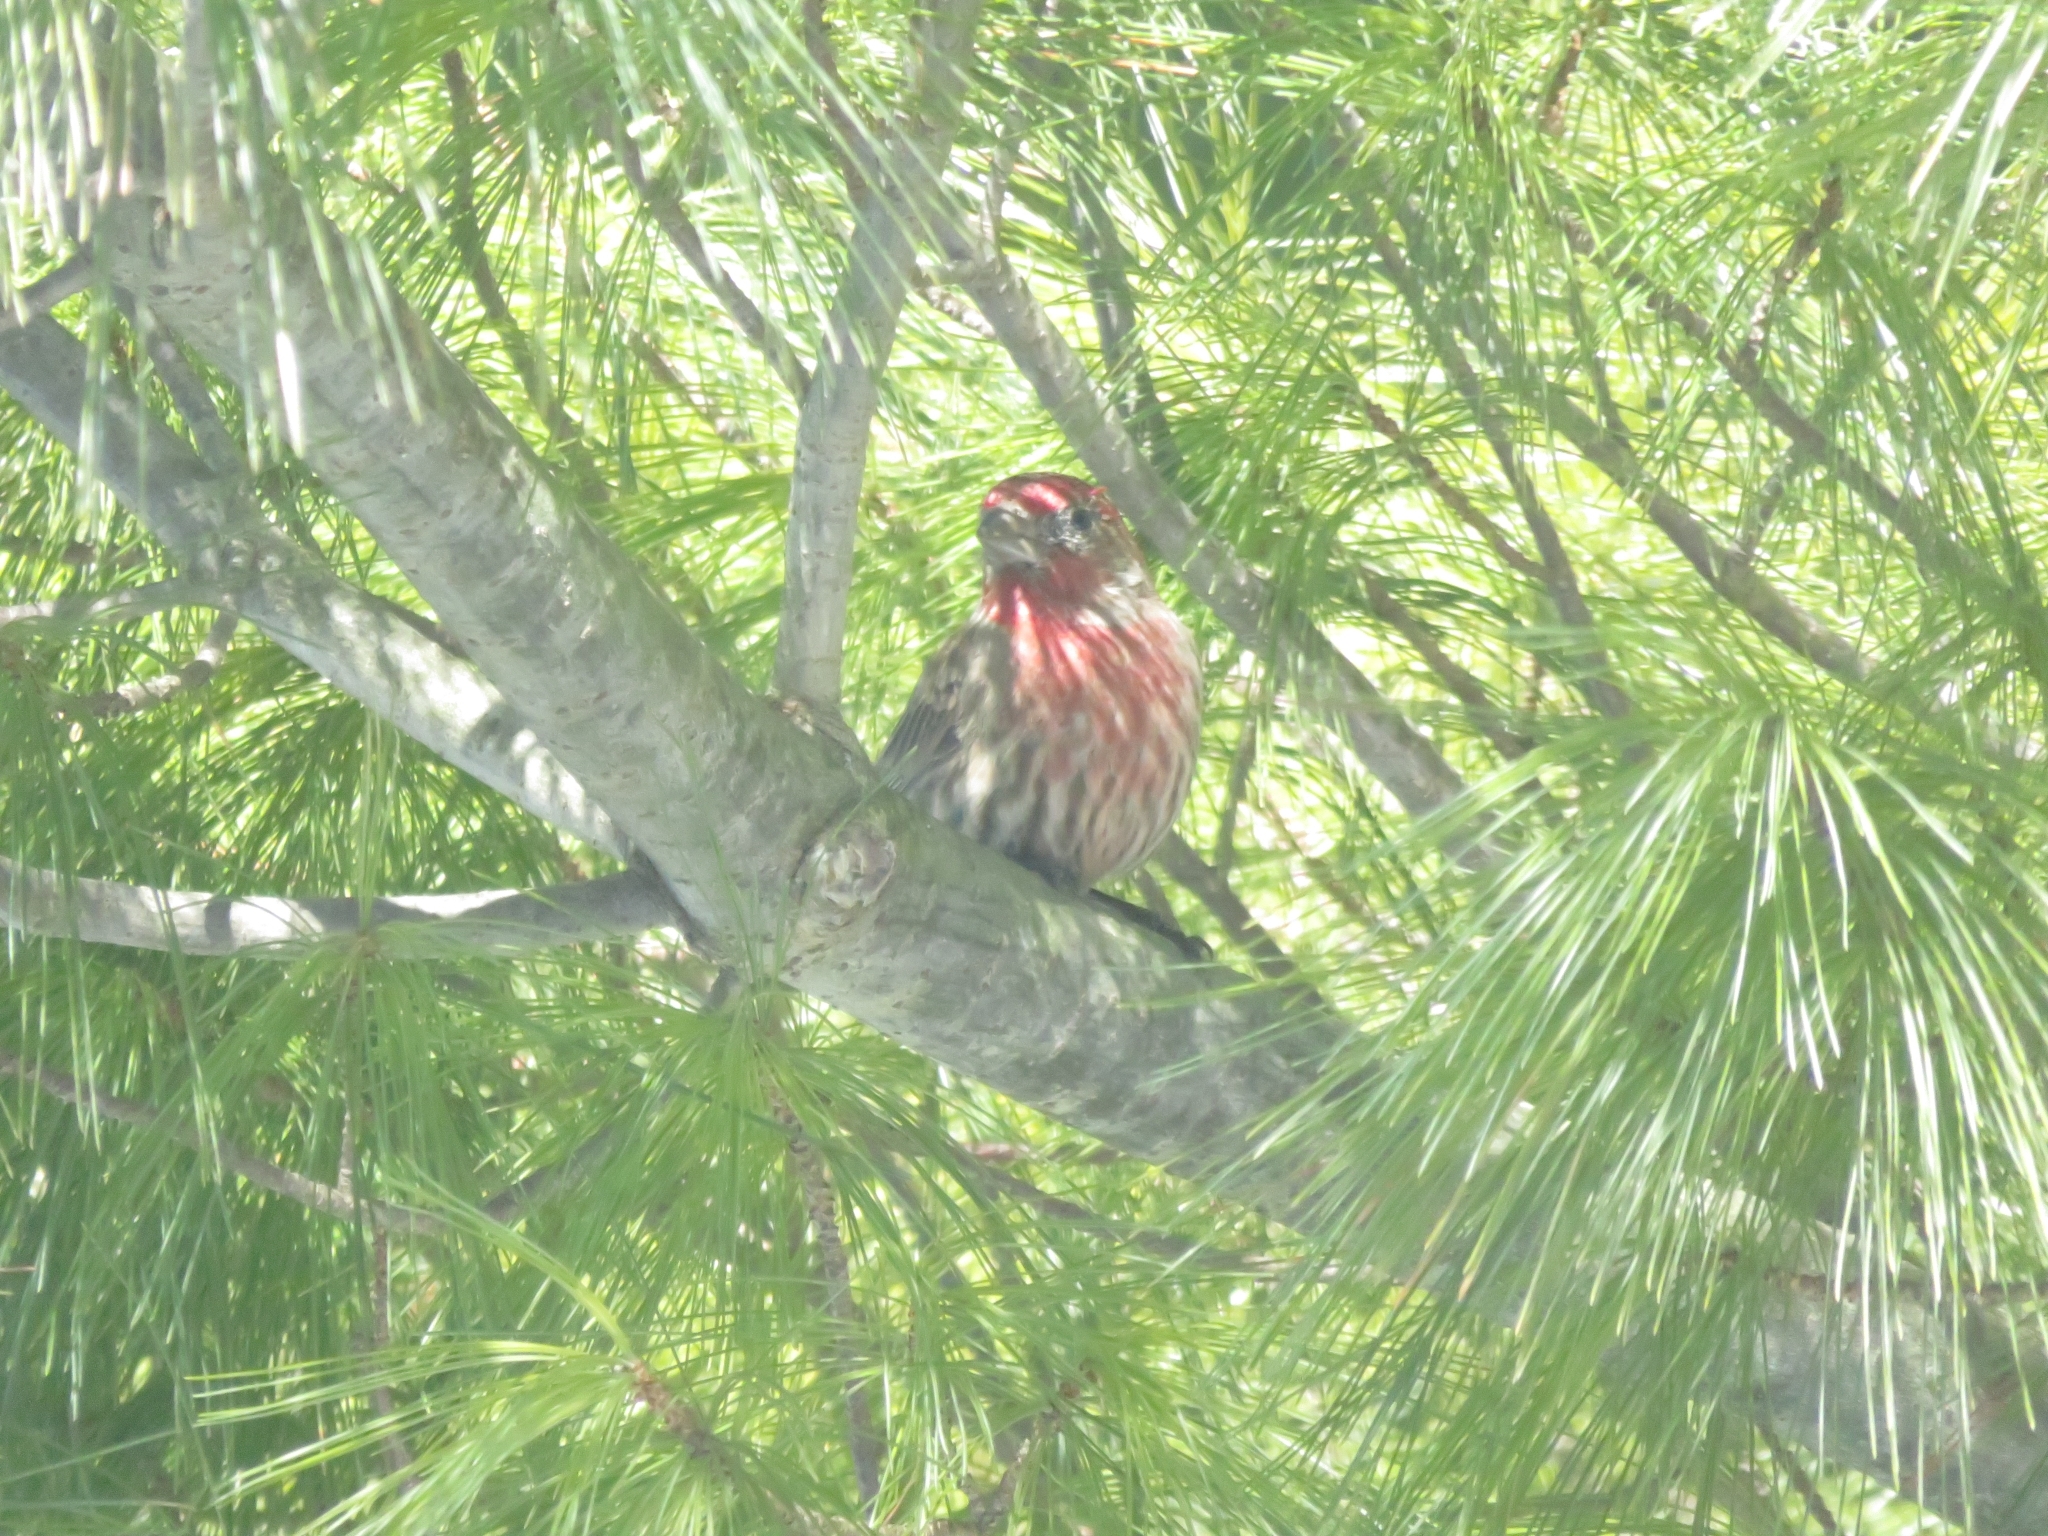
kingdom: Animalia
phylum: Chordata
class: Aves
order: Passeriformes
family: Fringillidae
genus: Haemorhous
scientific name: Haemorhous mexicanus
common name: House finch
